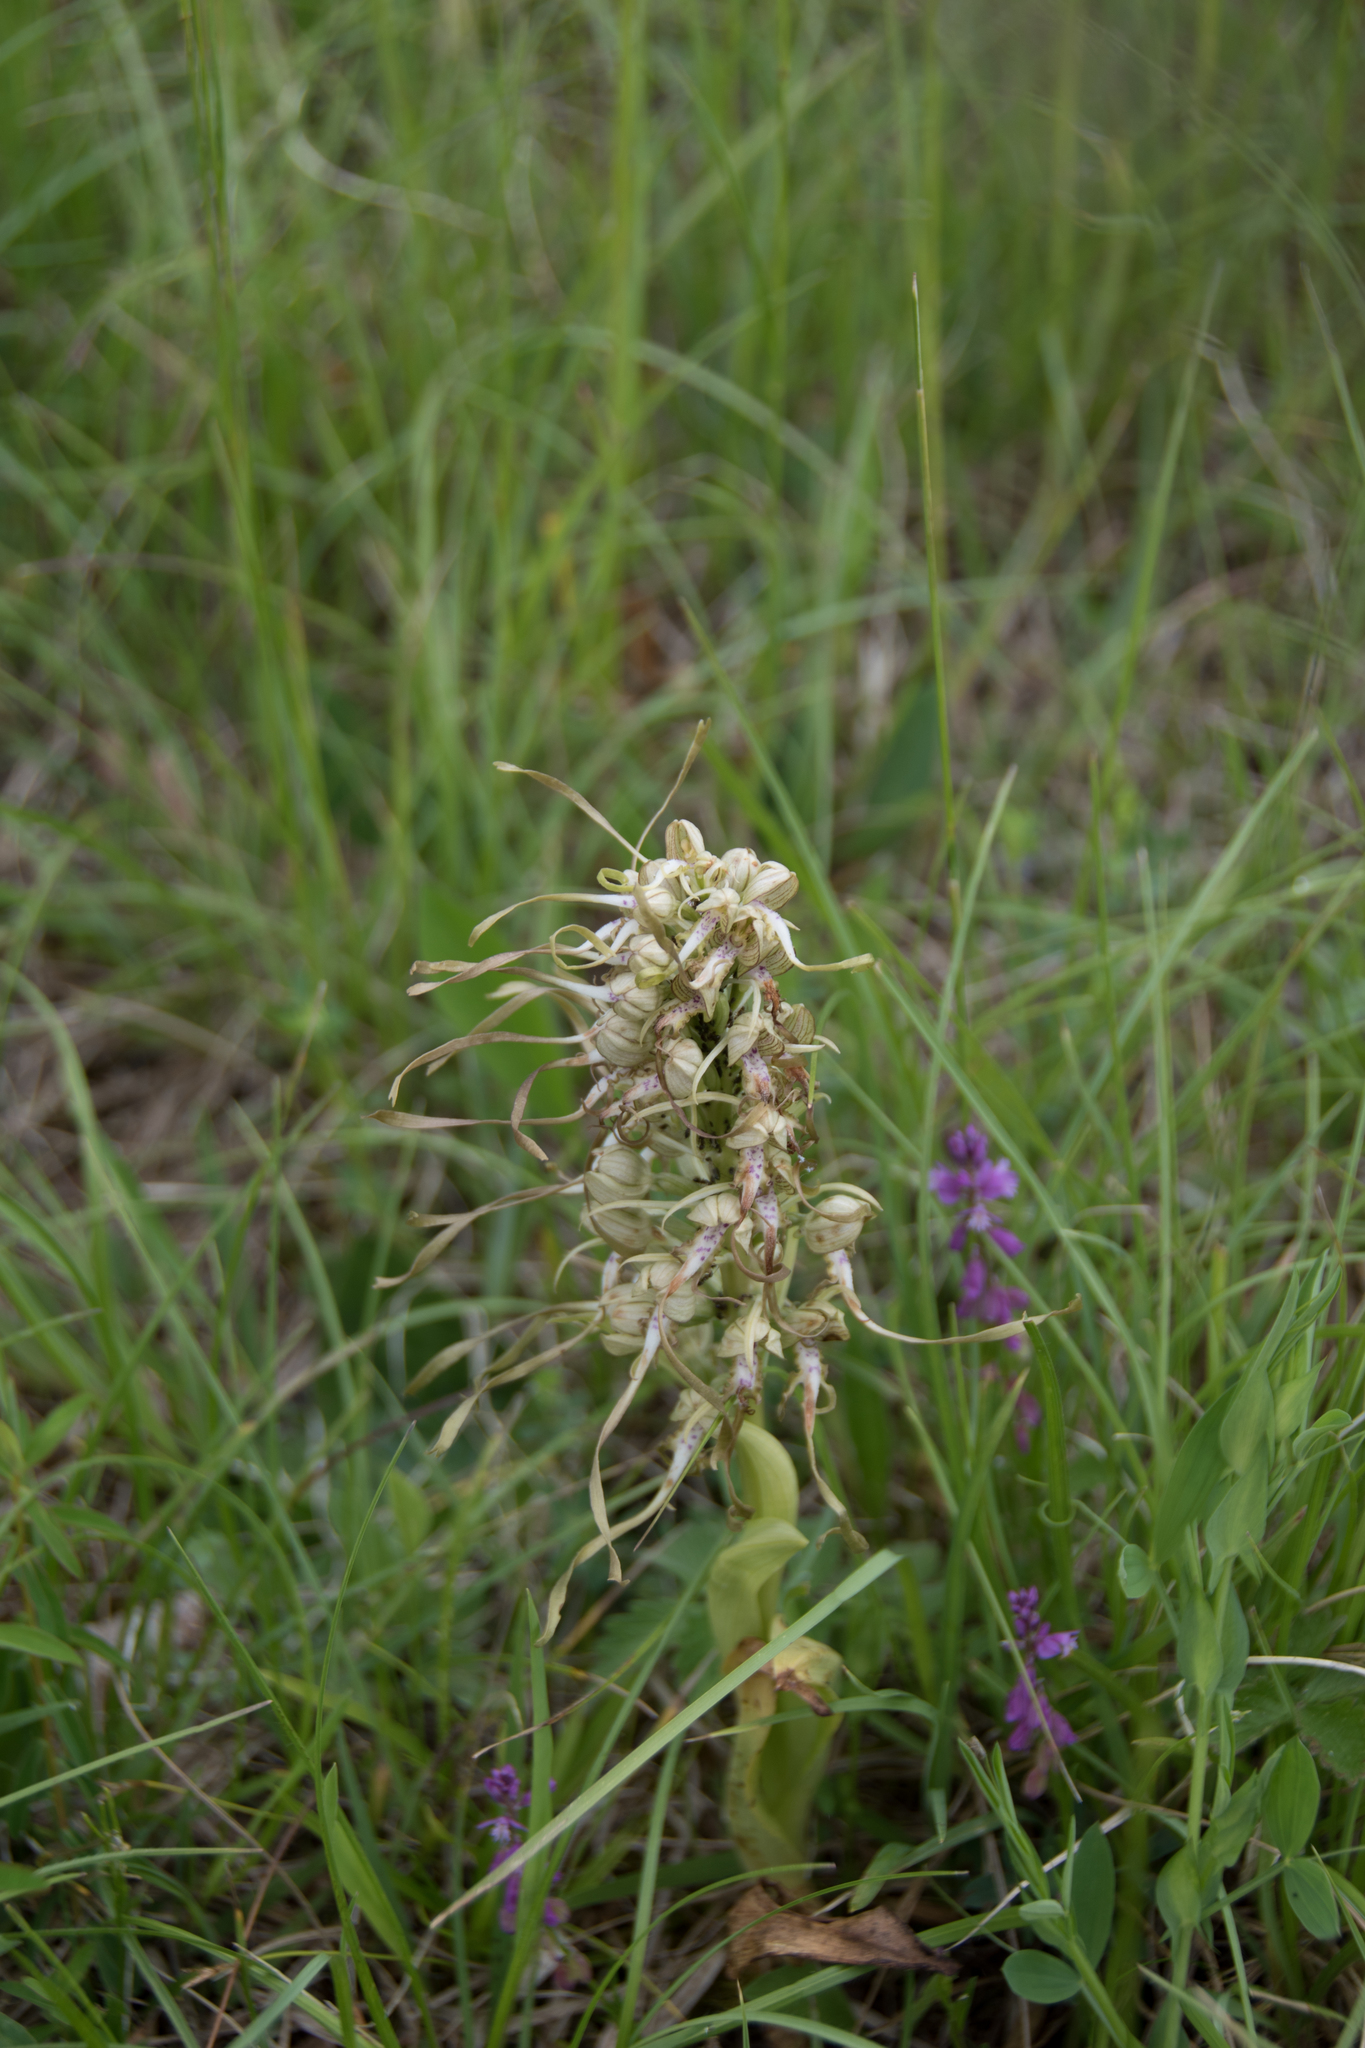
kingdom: Plantae
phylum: Tracheophyta
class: Liliopsida
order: Asparagales
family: Orchidaceae
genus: Himantoglossum
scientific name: Himantoglossum hircinum
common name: Lizard orchid
